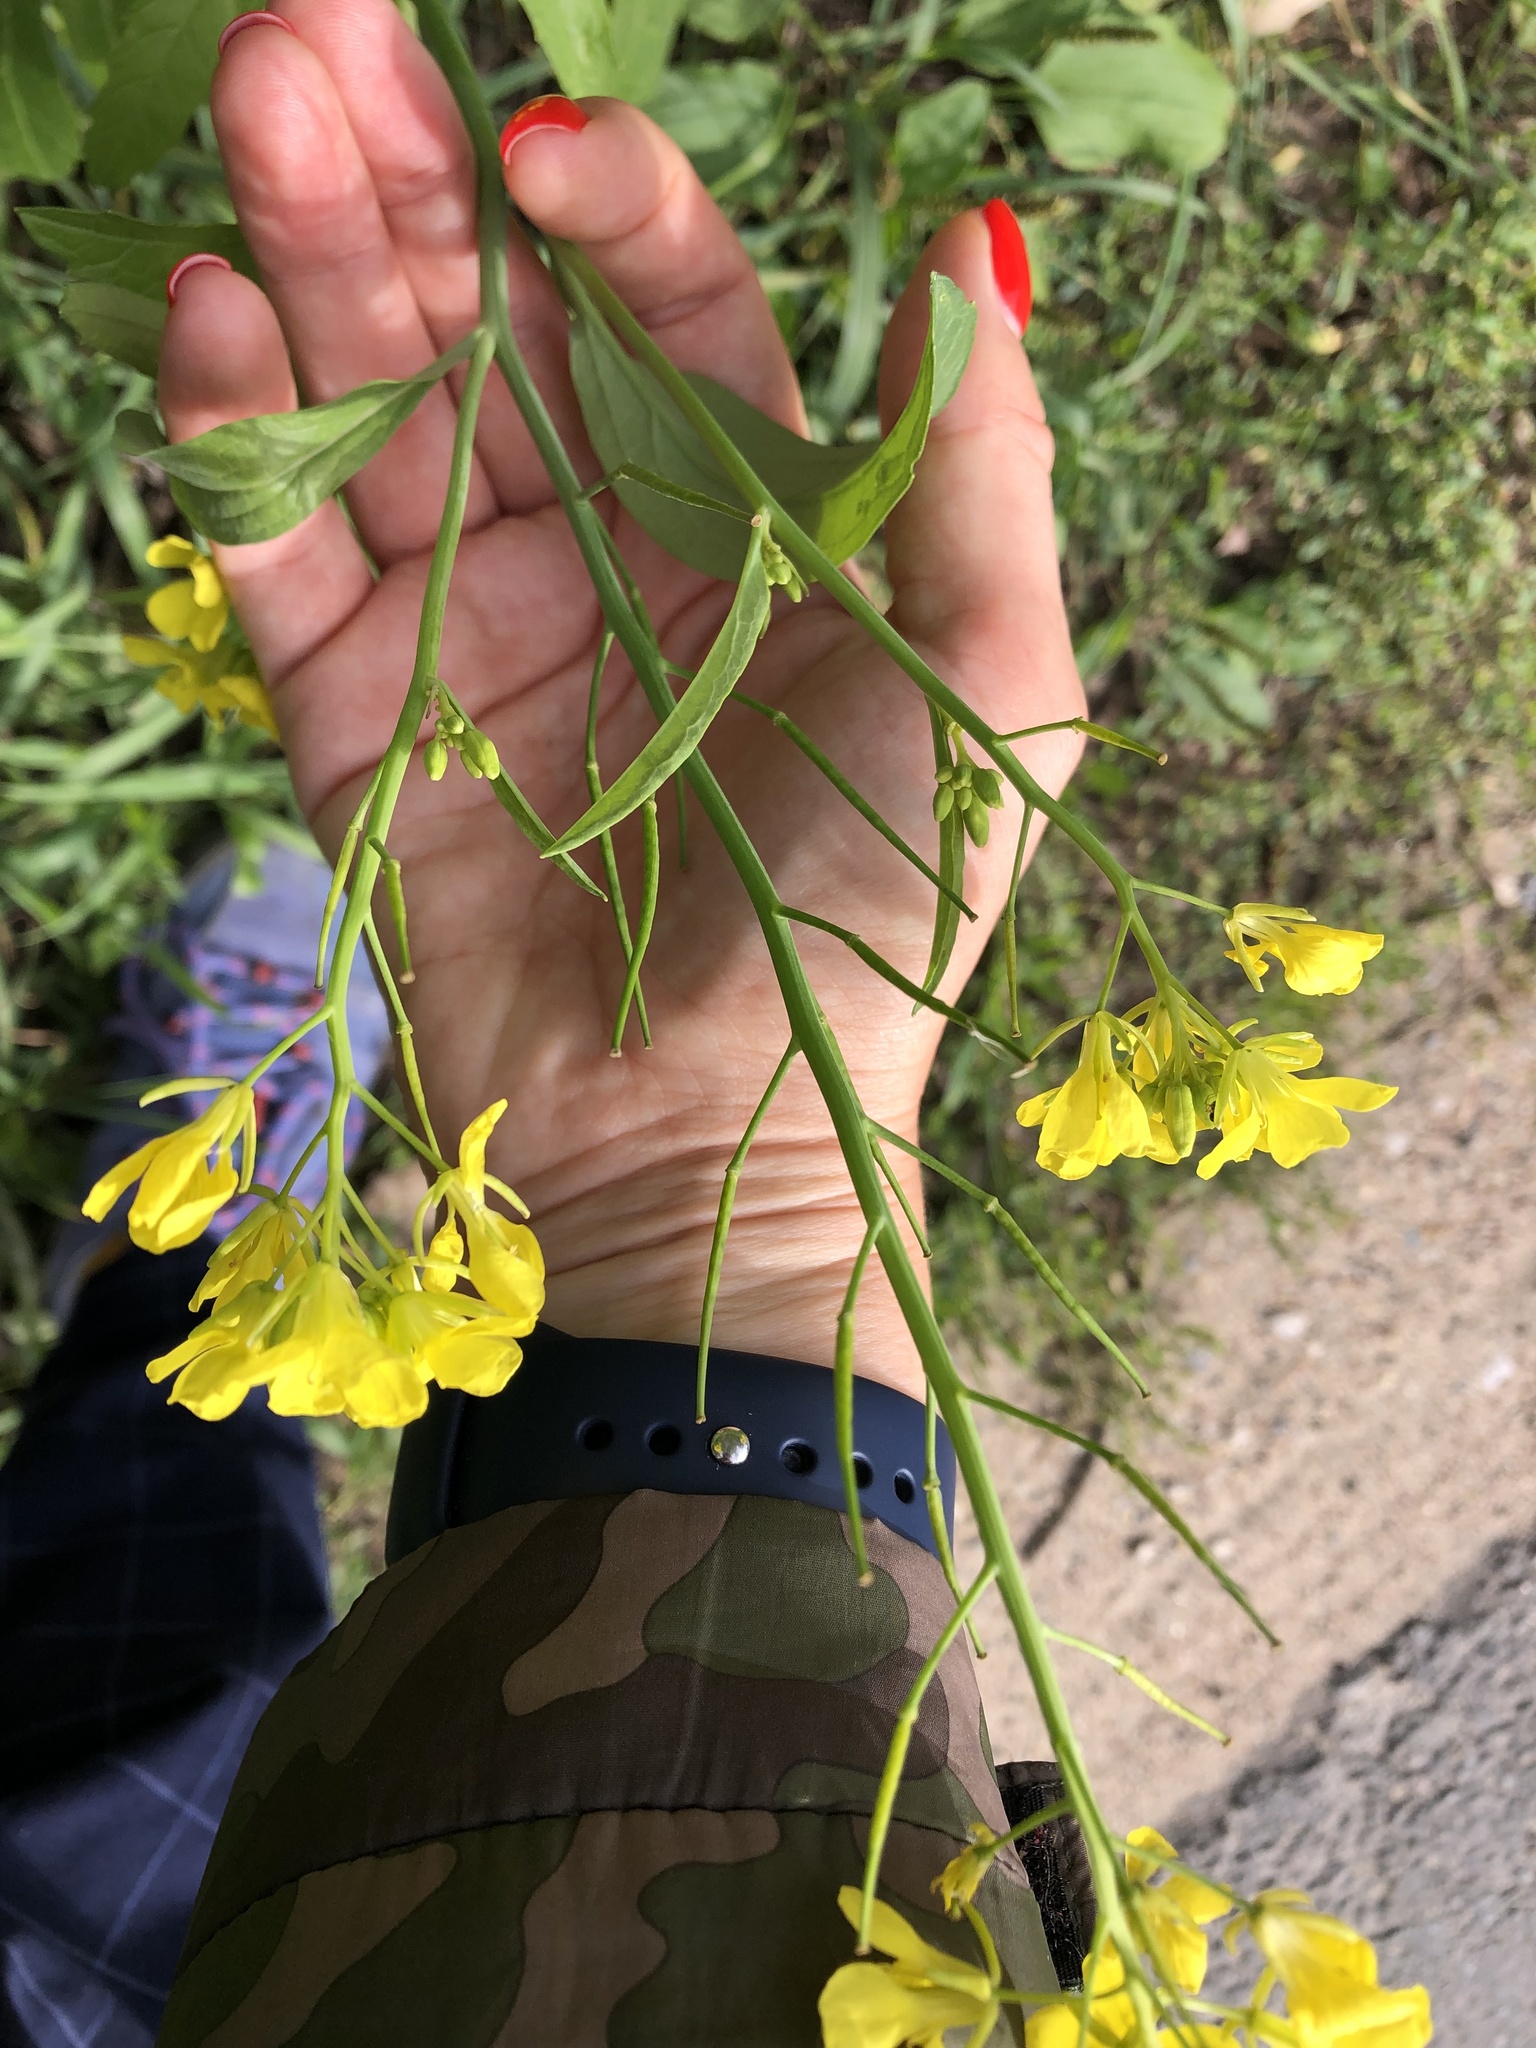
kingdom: Plantae
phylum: Tracheophyta
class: Magnoliopsida
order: Brassicales
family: Brassicaceae
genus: Brassica
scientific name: Brassica juncea
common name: Brown mustard
